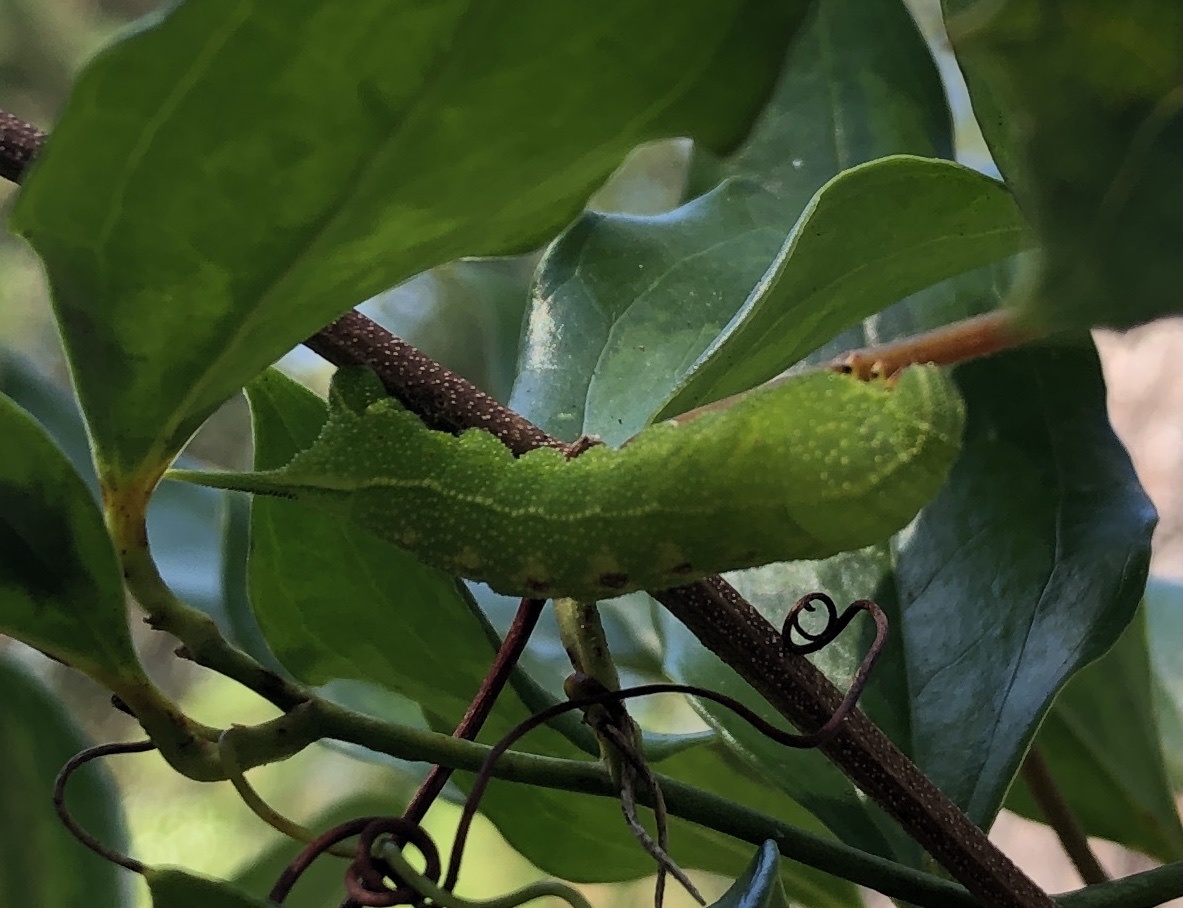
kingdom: Animalia
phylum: Arthropoda
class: Insecta
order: Lepidoptera
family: Sphingidae
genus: Darapsa
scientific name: Darapsa myron
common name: Hog sphinx
